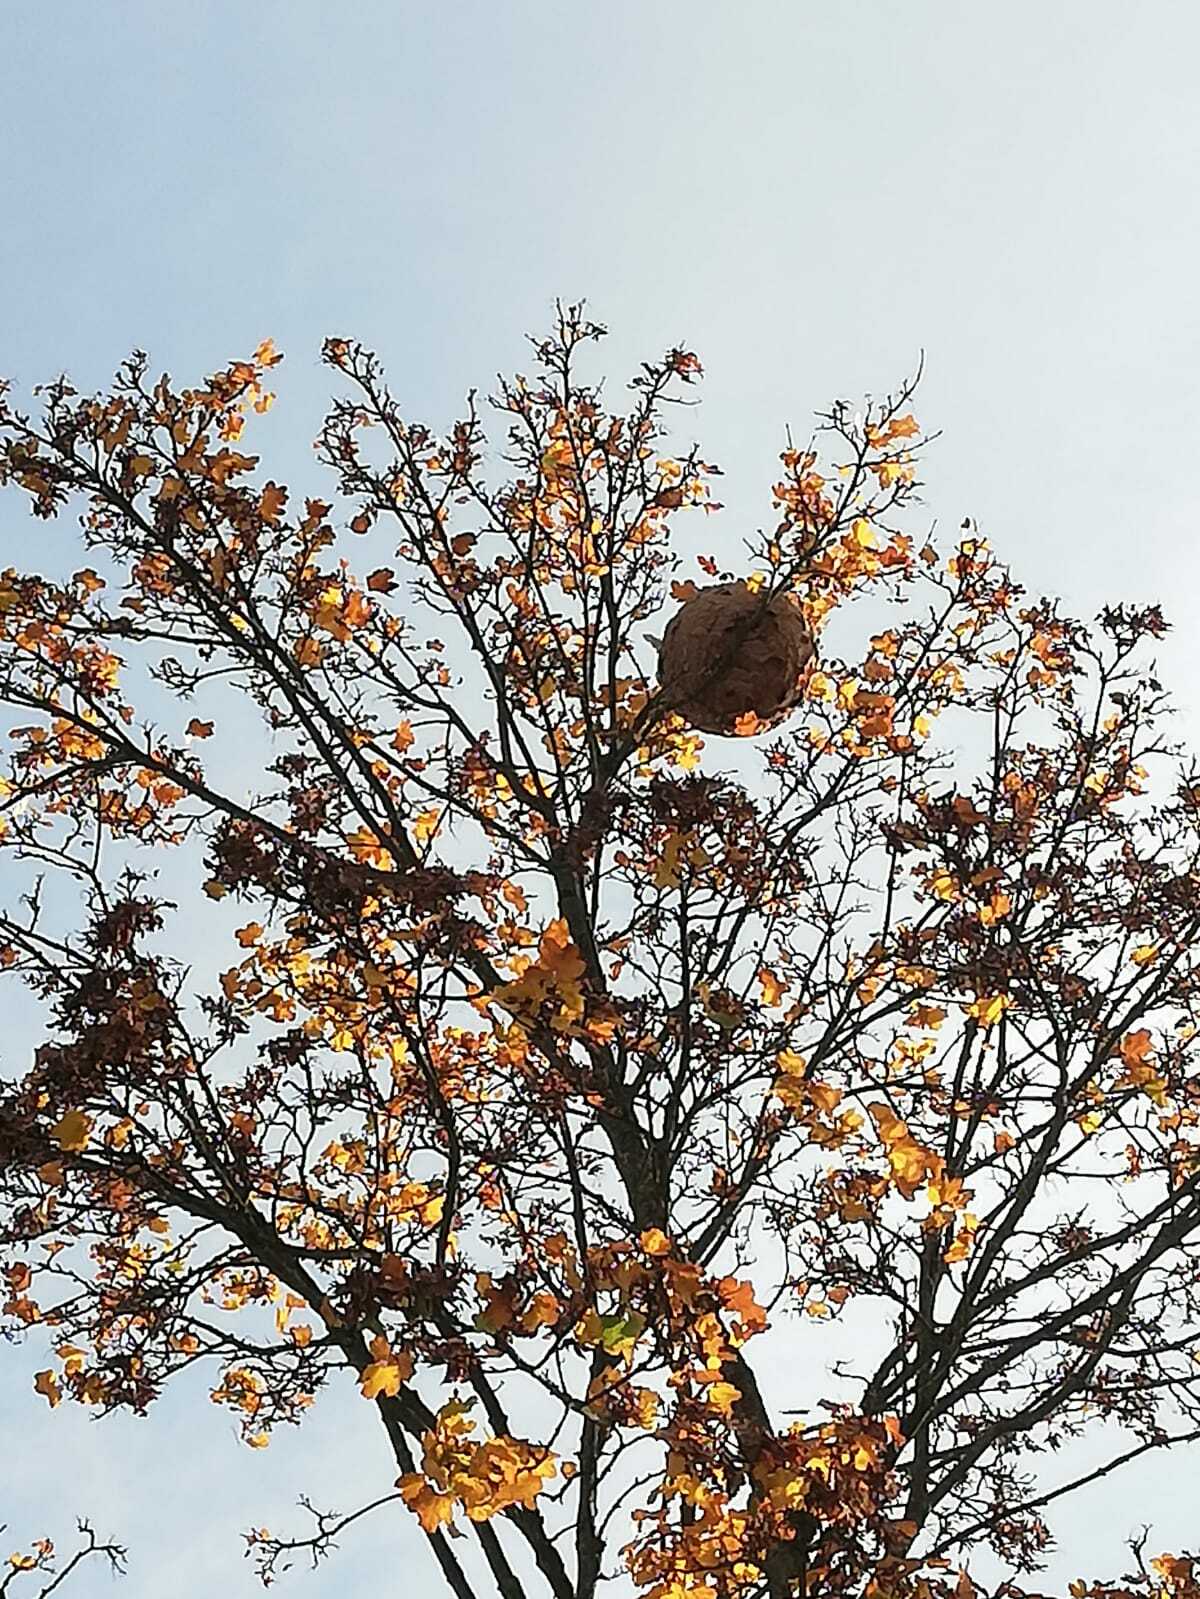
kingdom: Animalia
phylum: Arthropoda
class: Insecta
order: Hymenoptera
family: Vespidae
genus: Vespa
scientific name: Vespa velutina
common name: Asian hornet
